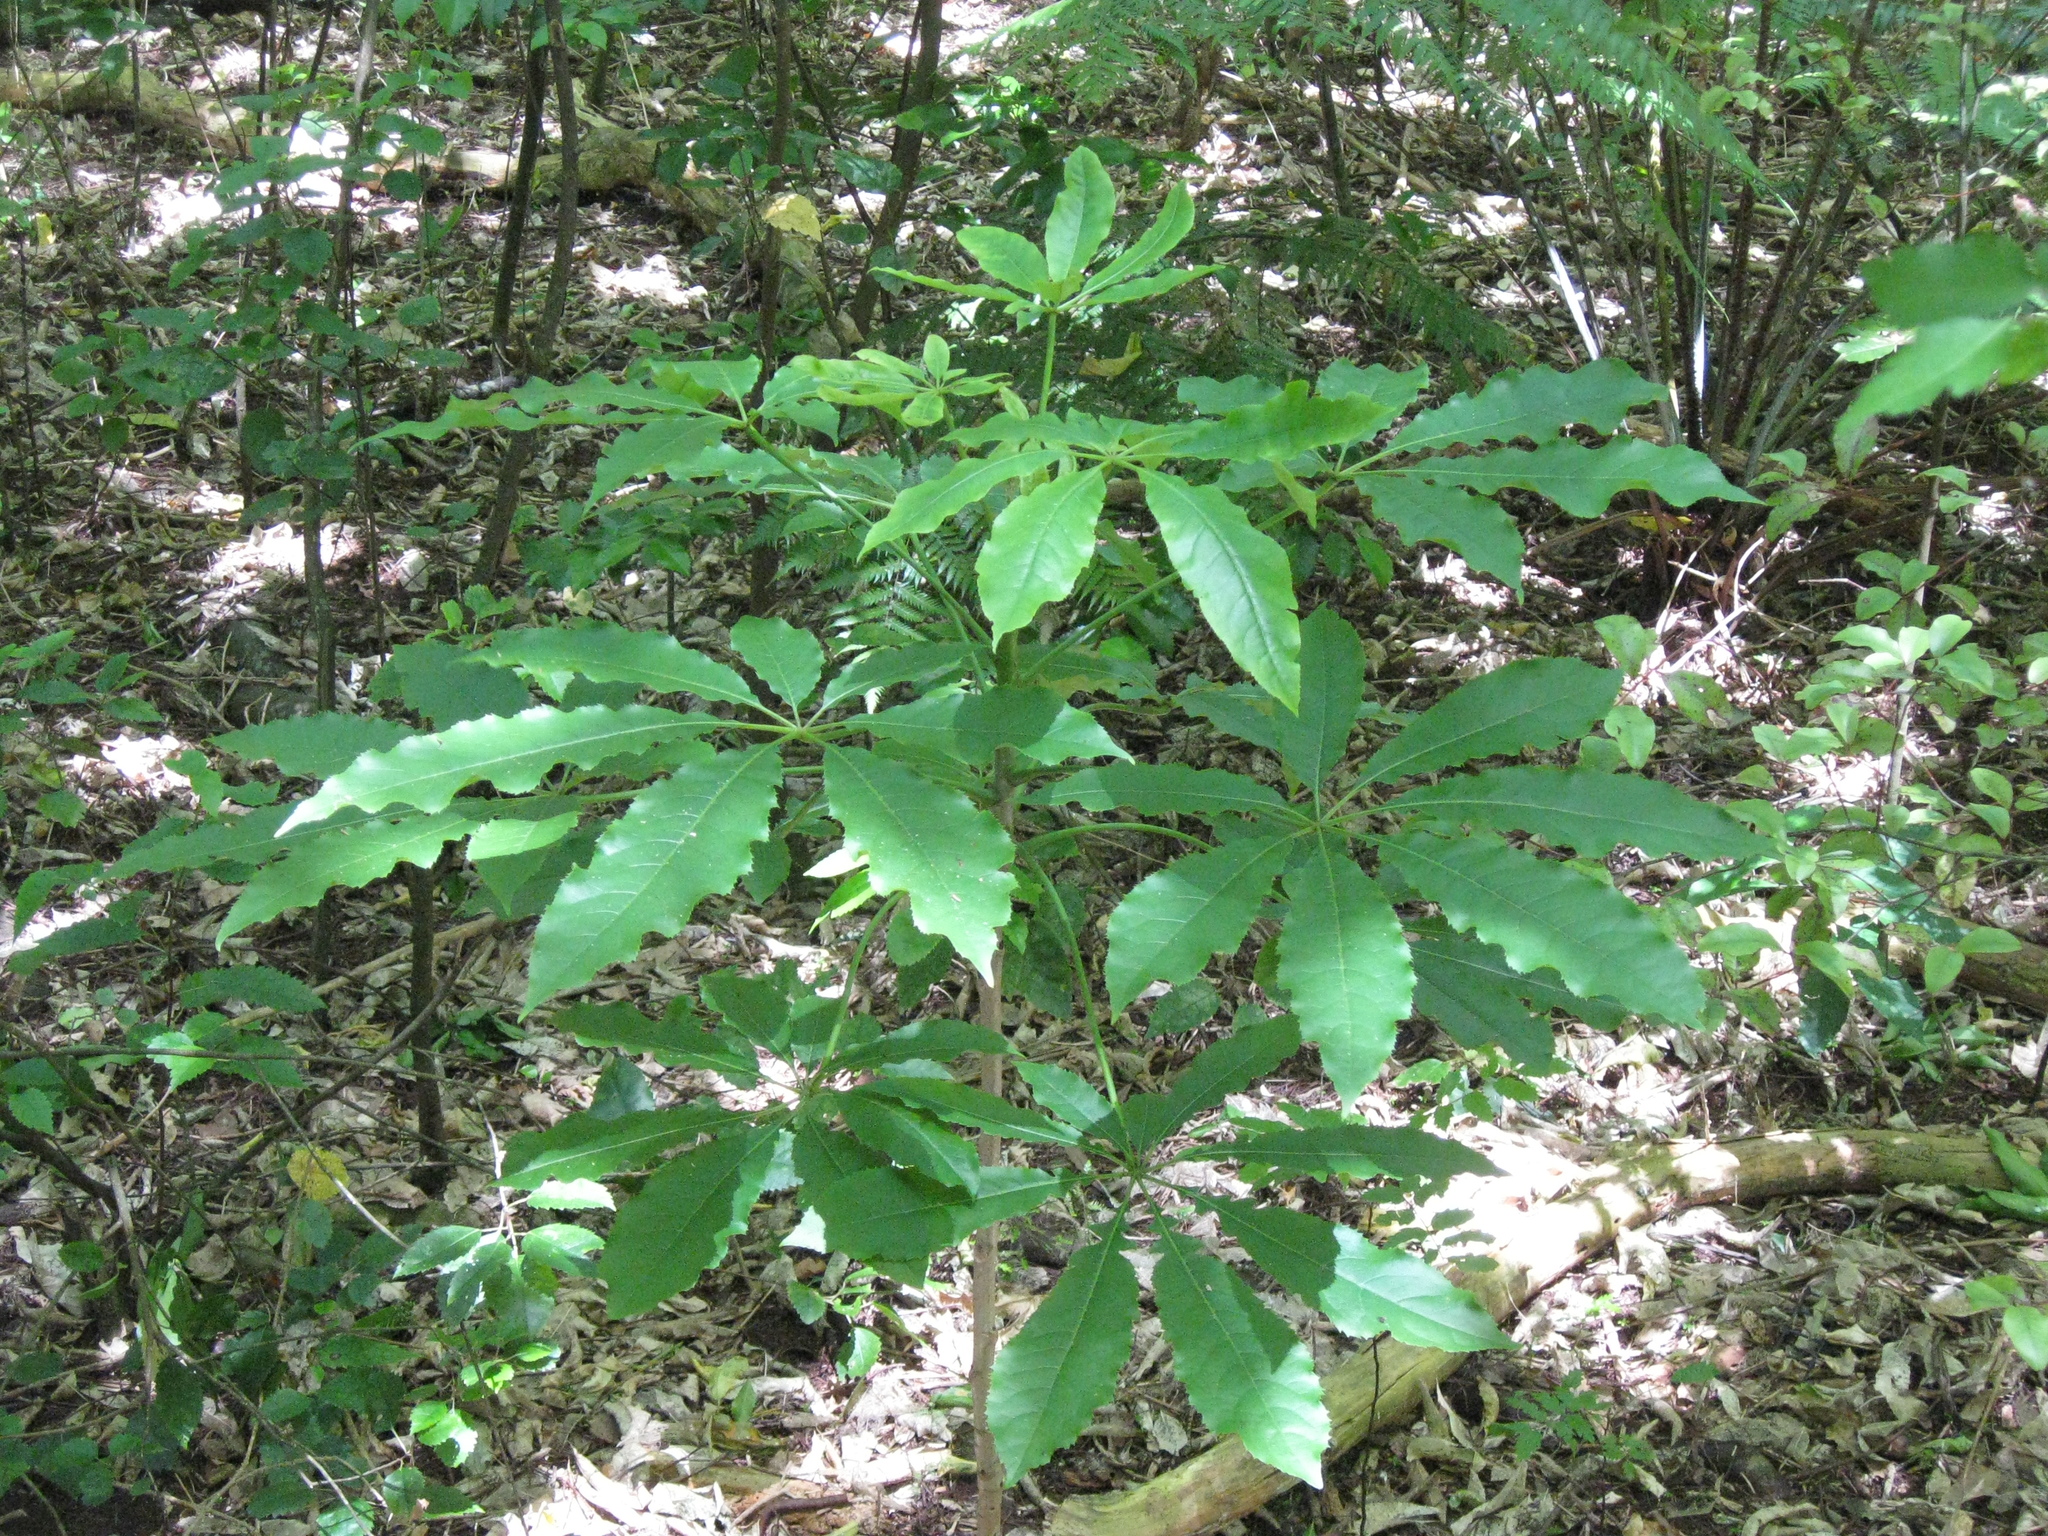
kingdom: Plantae
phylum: Tracheophyta
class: Magnoliopsida
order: Apiales
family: Araliaceae
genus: Schefflera
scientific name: Schefflera digitata
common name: Pate
